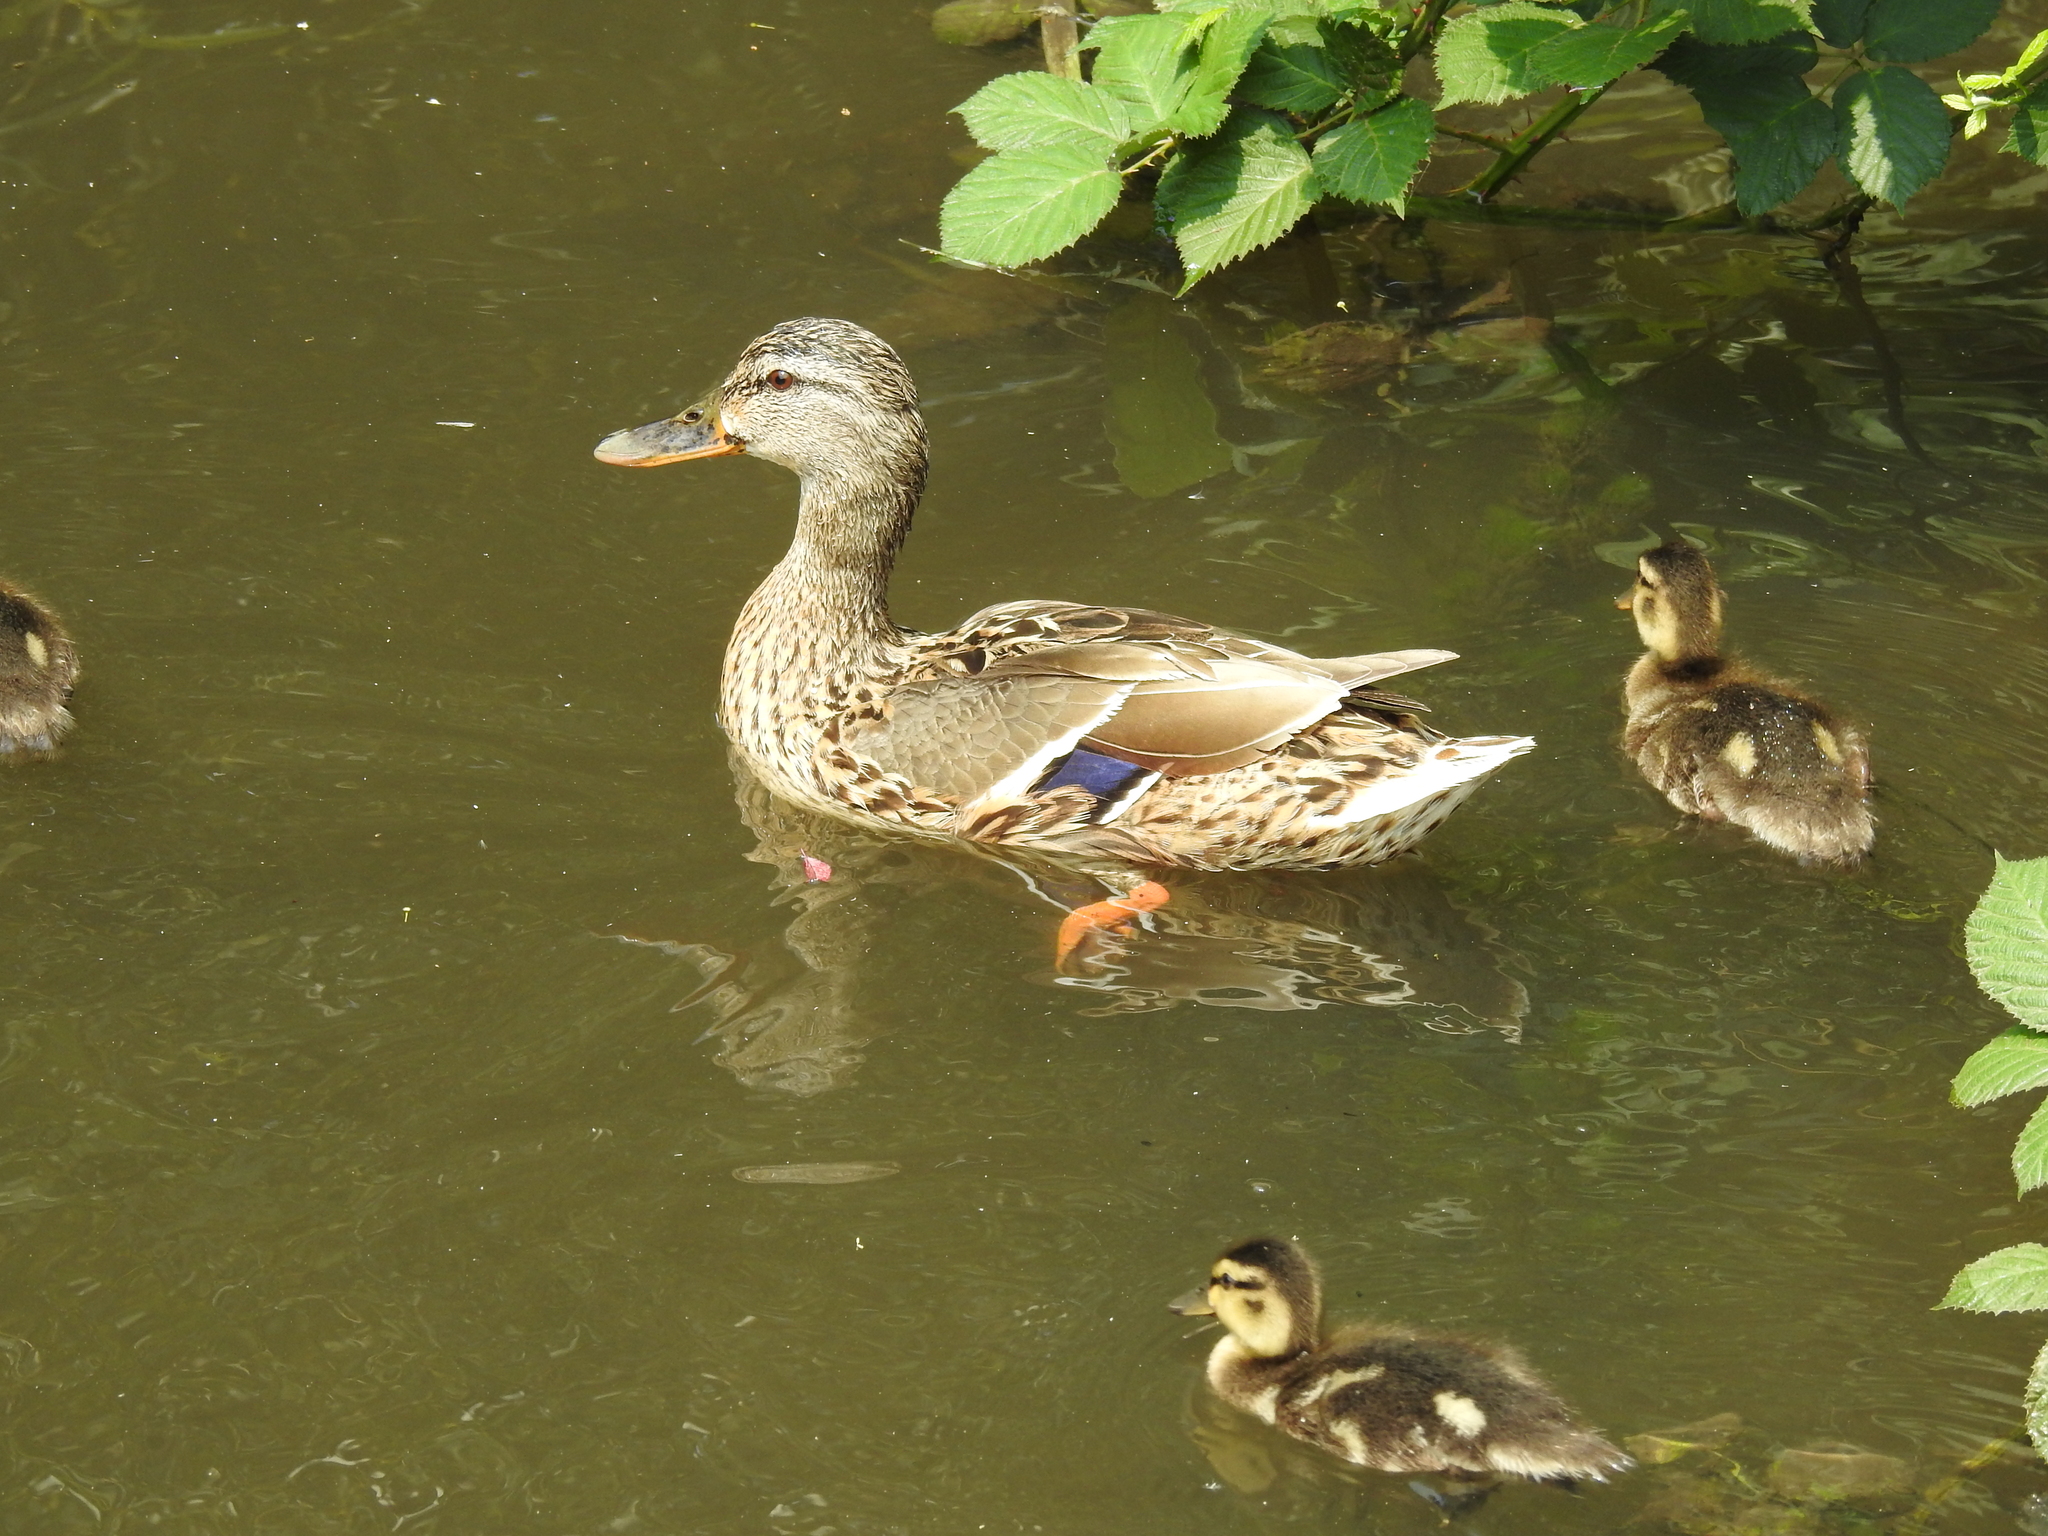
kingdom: Animalia
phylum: Chordata
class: Aves
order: Anseriformes
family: Anatidae
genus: Anas
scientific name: Anas platyrhynchos
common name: Mallard
